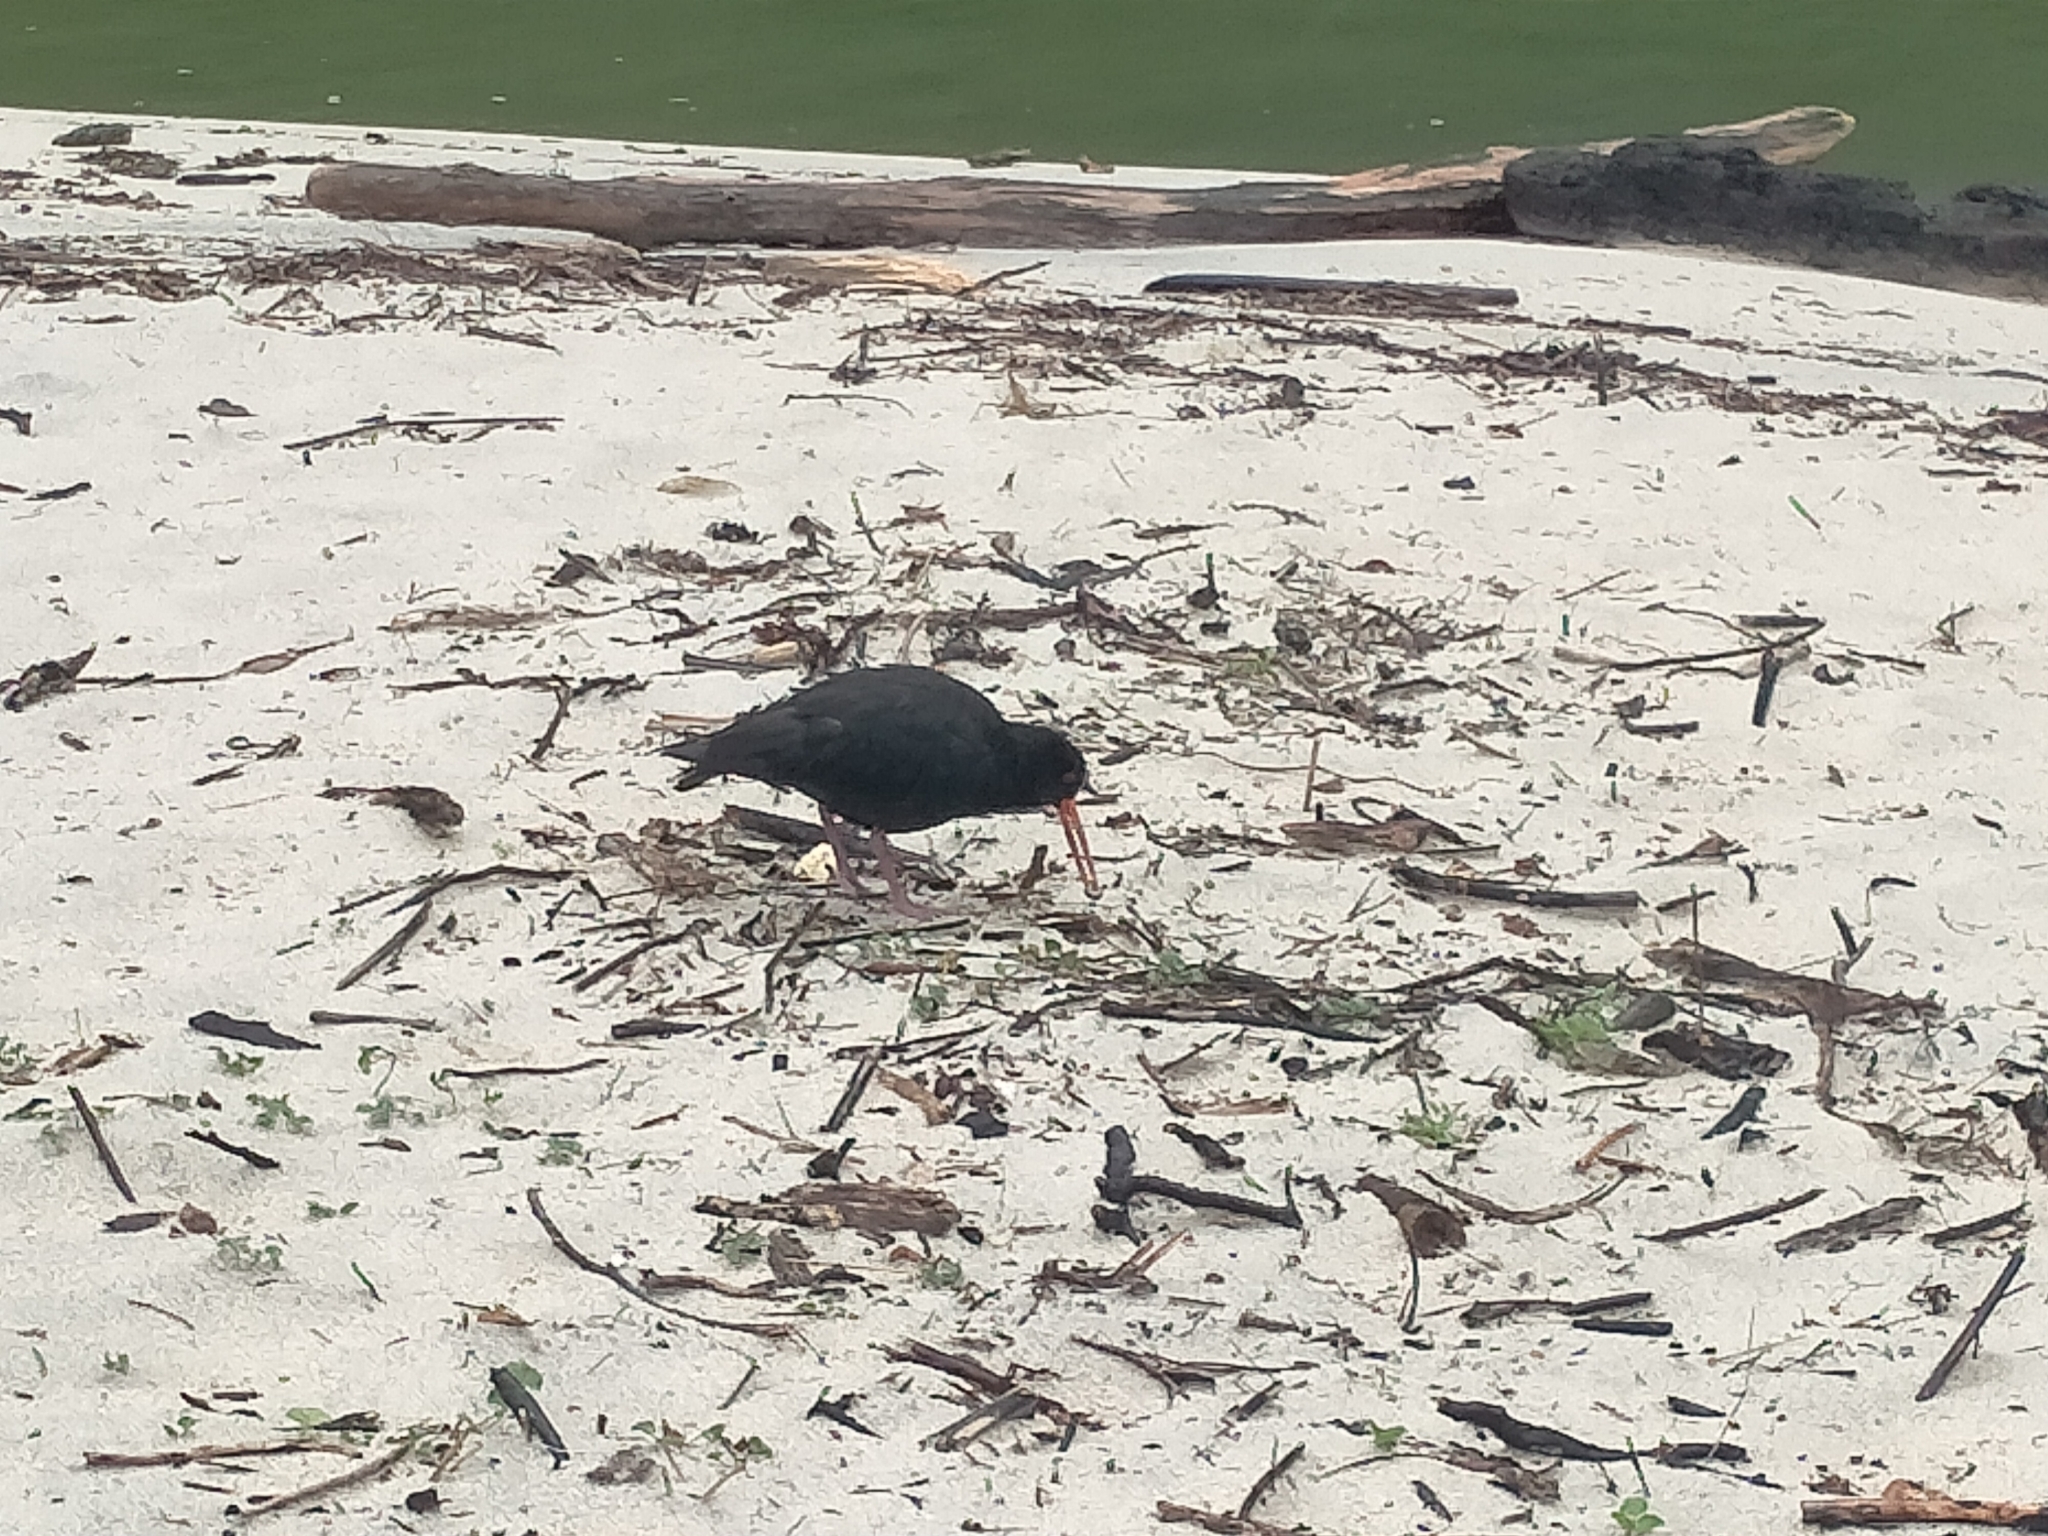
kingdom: Animalia
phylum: Chordata
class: Aves
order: Charadriiformes
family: Haematopodidae
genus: Haematopus
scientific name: Haematopus unicolor
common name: Variable oystercatcher
